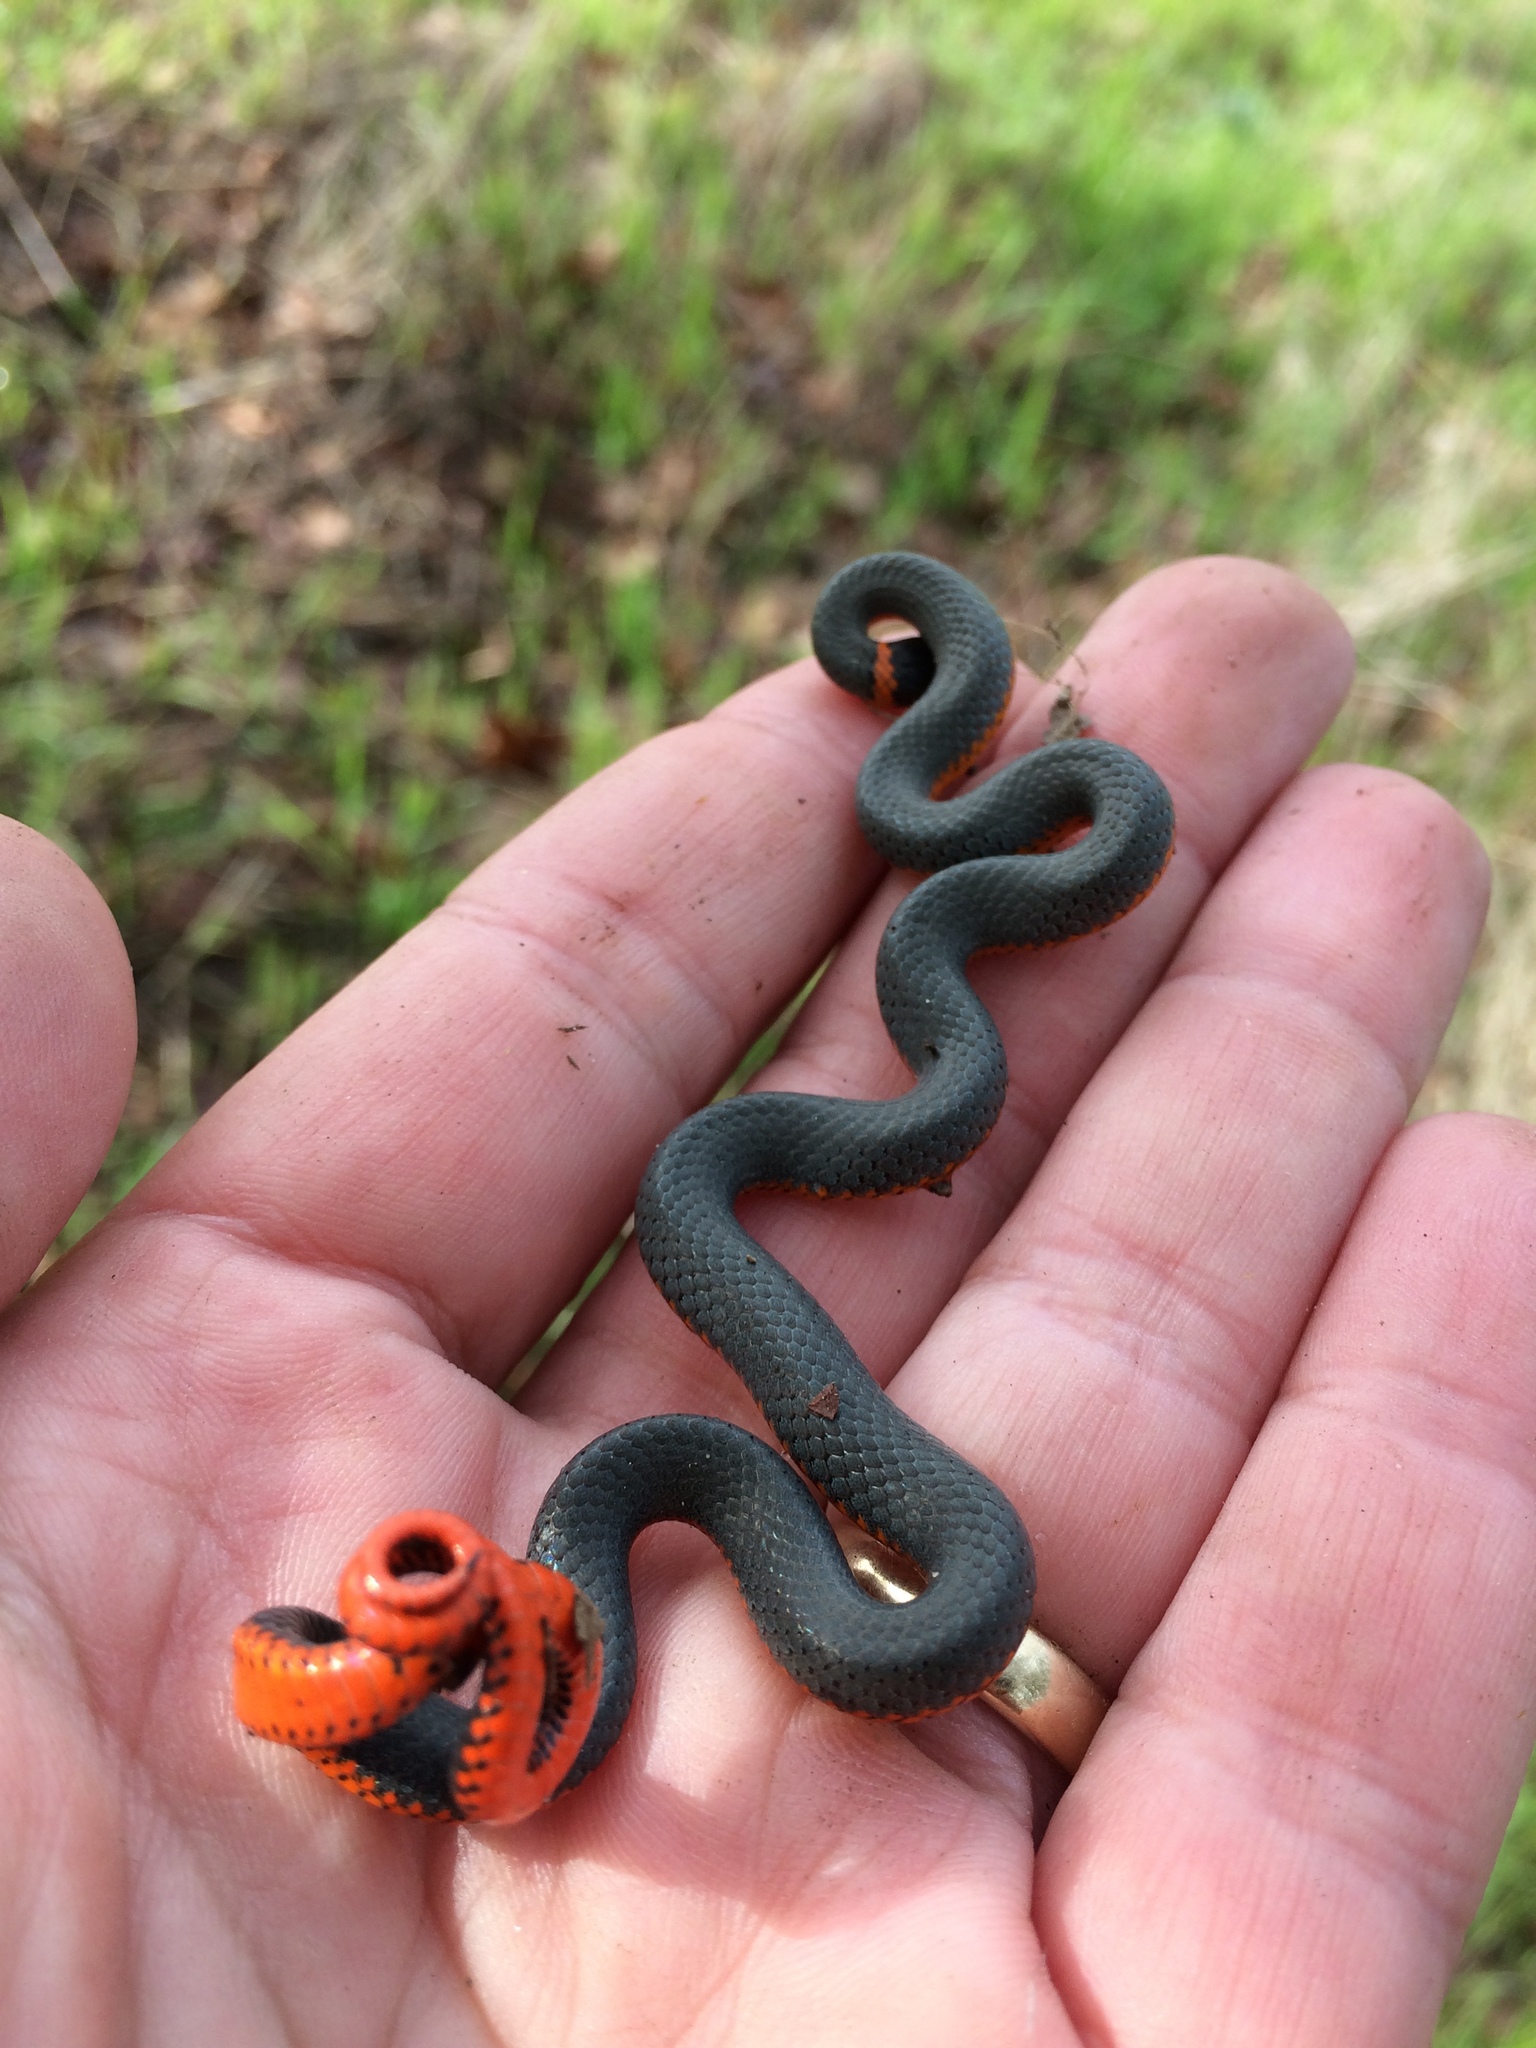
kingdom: Animalia
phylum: Chordata
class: Squamata
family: Colubridae
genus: Diadophis
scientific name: Diadophis punctatus
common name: Ringneck snake
